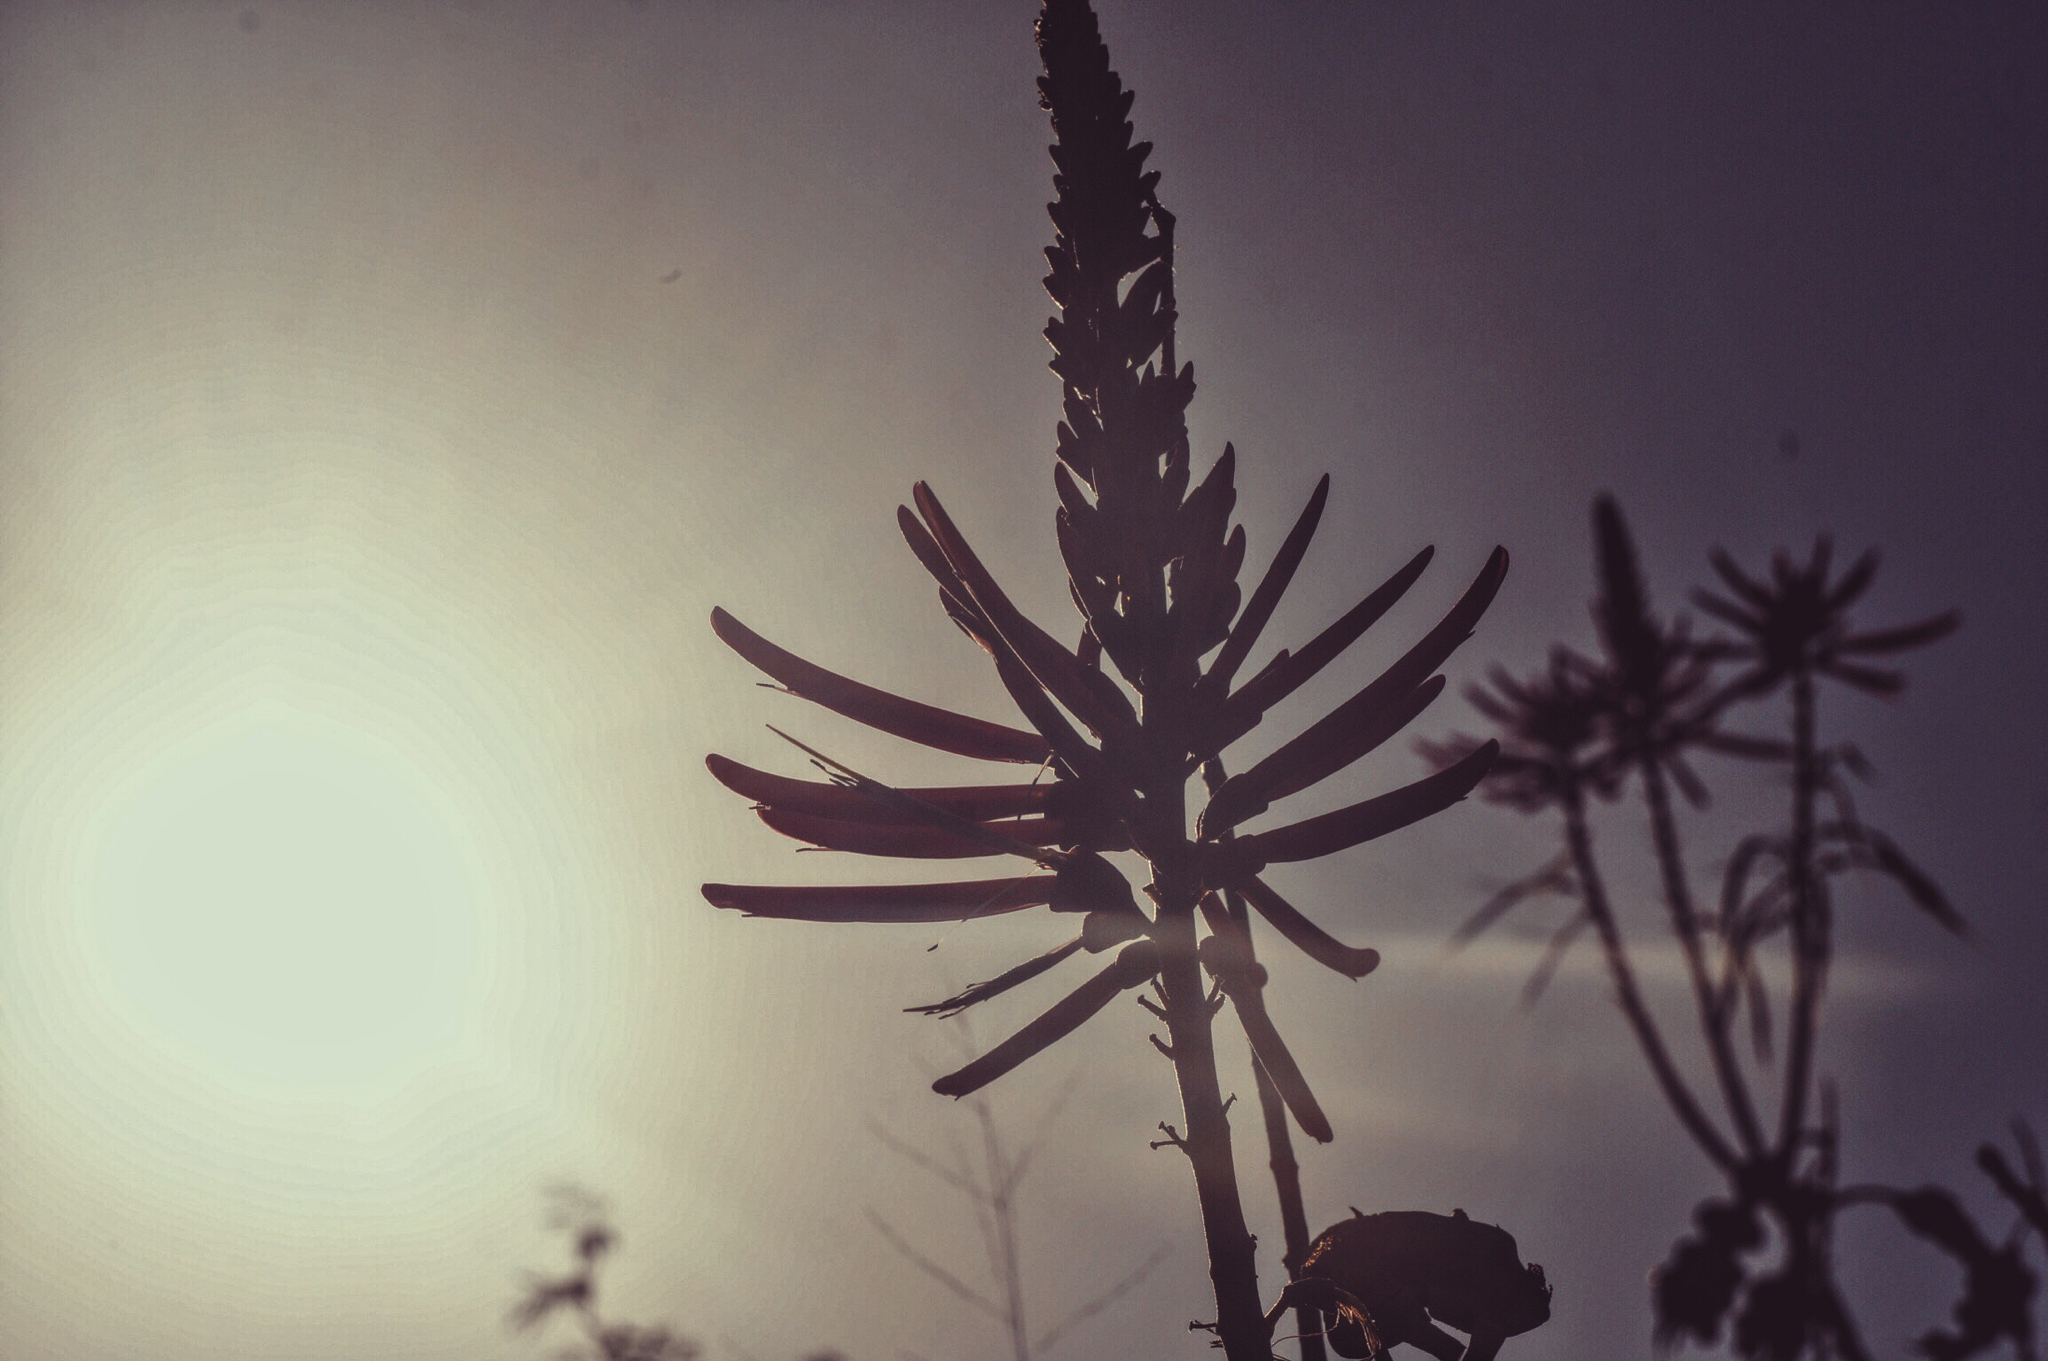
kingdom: Plantae
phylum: Tracheophyta
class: Magnoliopsida
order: Fabales
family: Fabaceae
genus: Erythrina
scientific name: Erythrina herbacea
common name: Coral-bean
